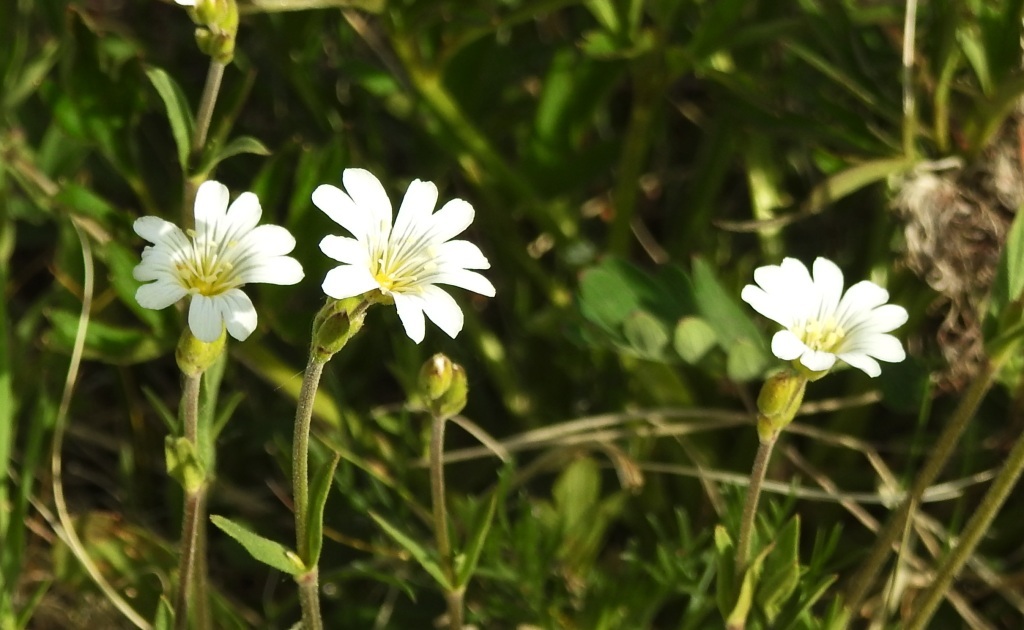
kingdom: Plantae
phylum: Tracheophyta
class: Magnoliopsida
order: Caryophyllales
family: Caryophyllaceae
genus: Cerastium
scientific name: Cerastium arvense
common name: Field mouse-ear
